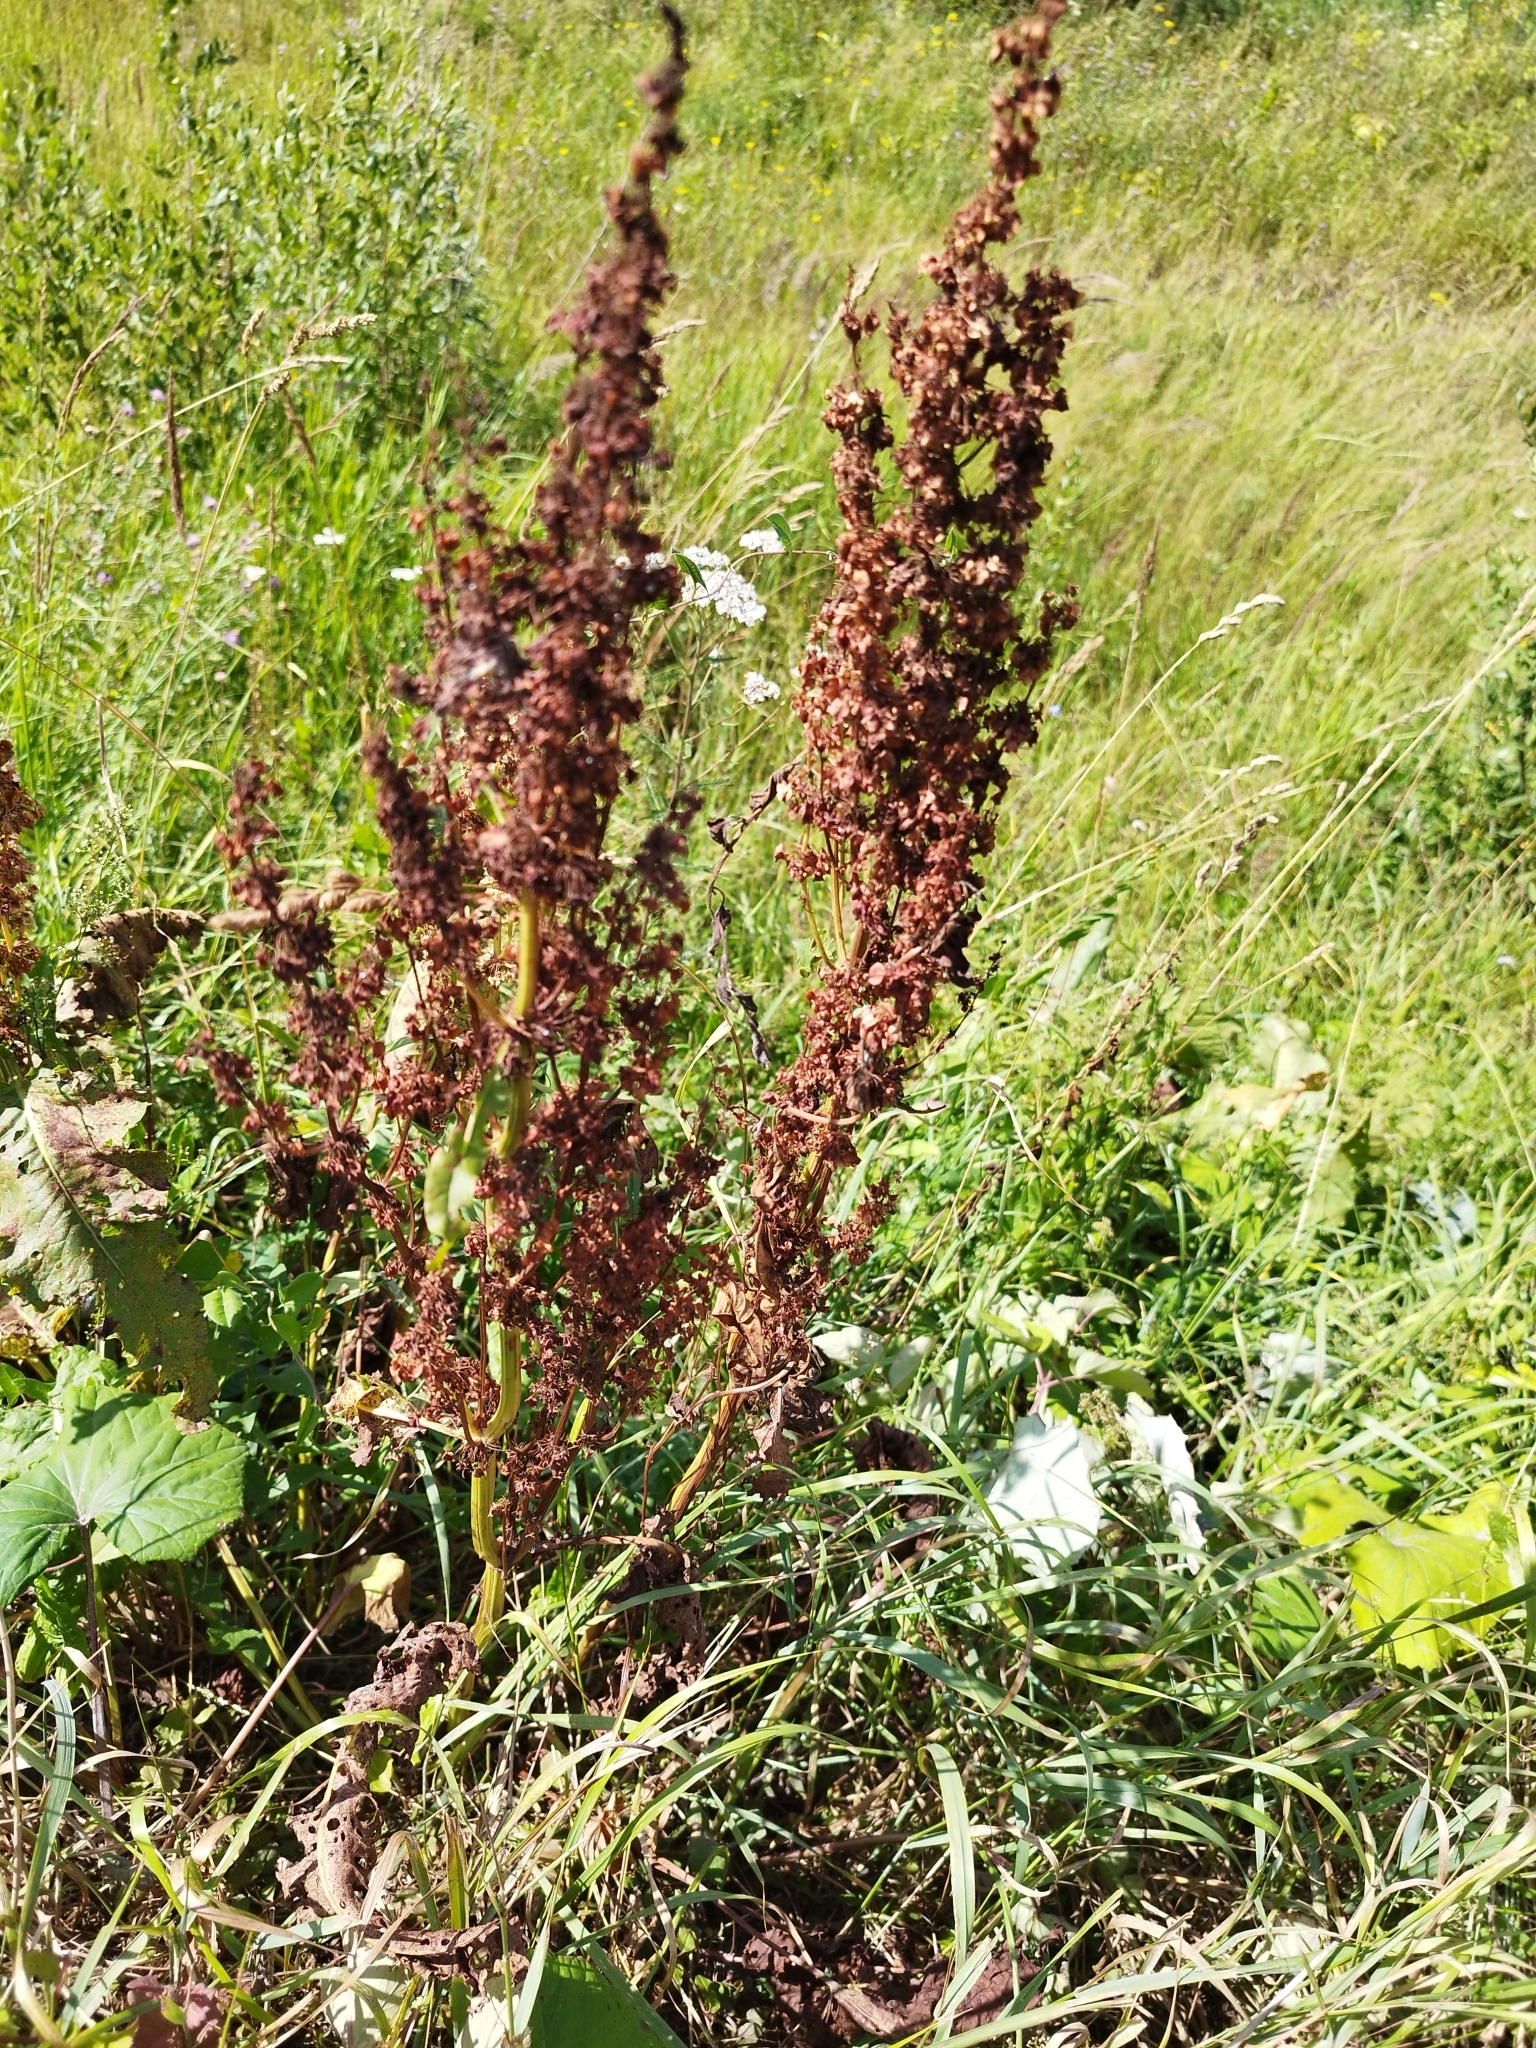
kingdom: Plantae
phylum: Tracheophyta
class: Magnoliopsida
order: Caryophyllales
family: Polygonaceae
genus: Rumex
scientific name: Rumex confertus
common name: Russian dock
